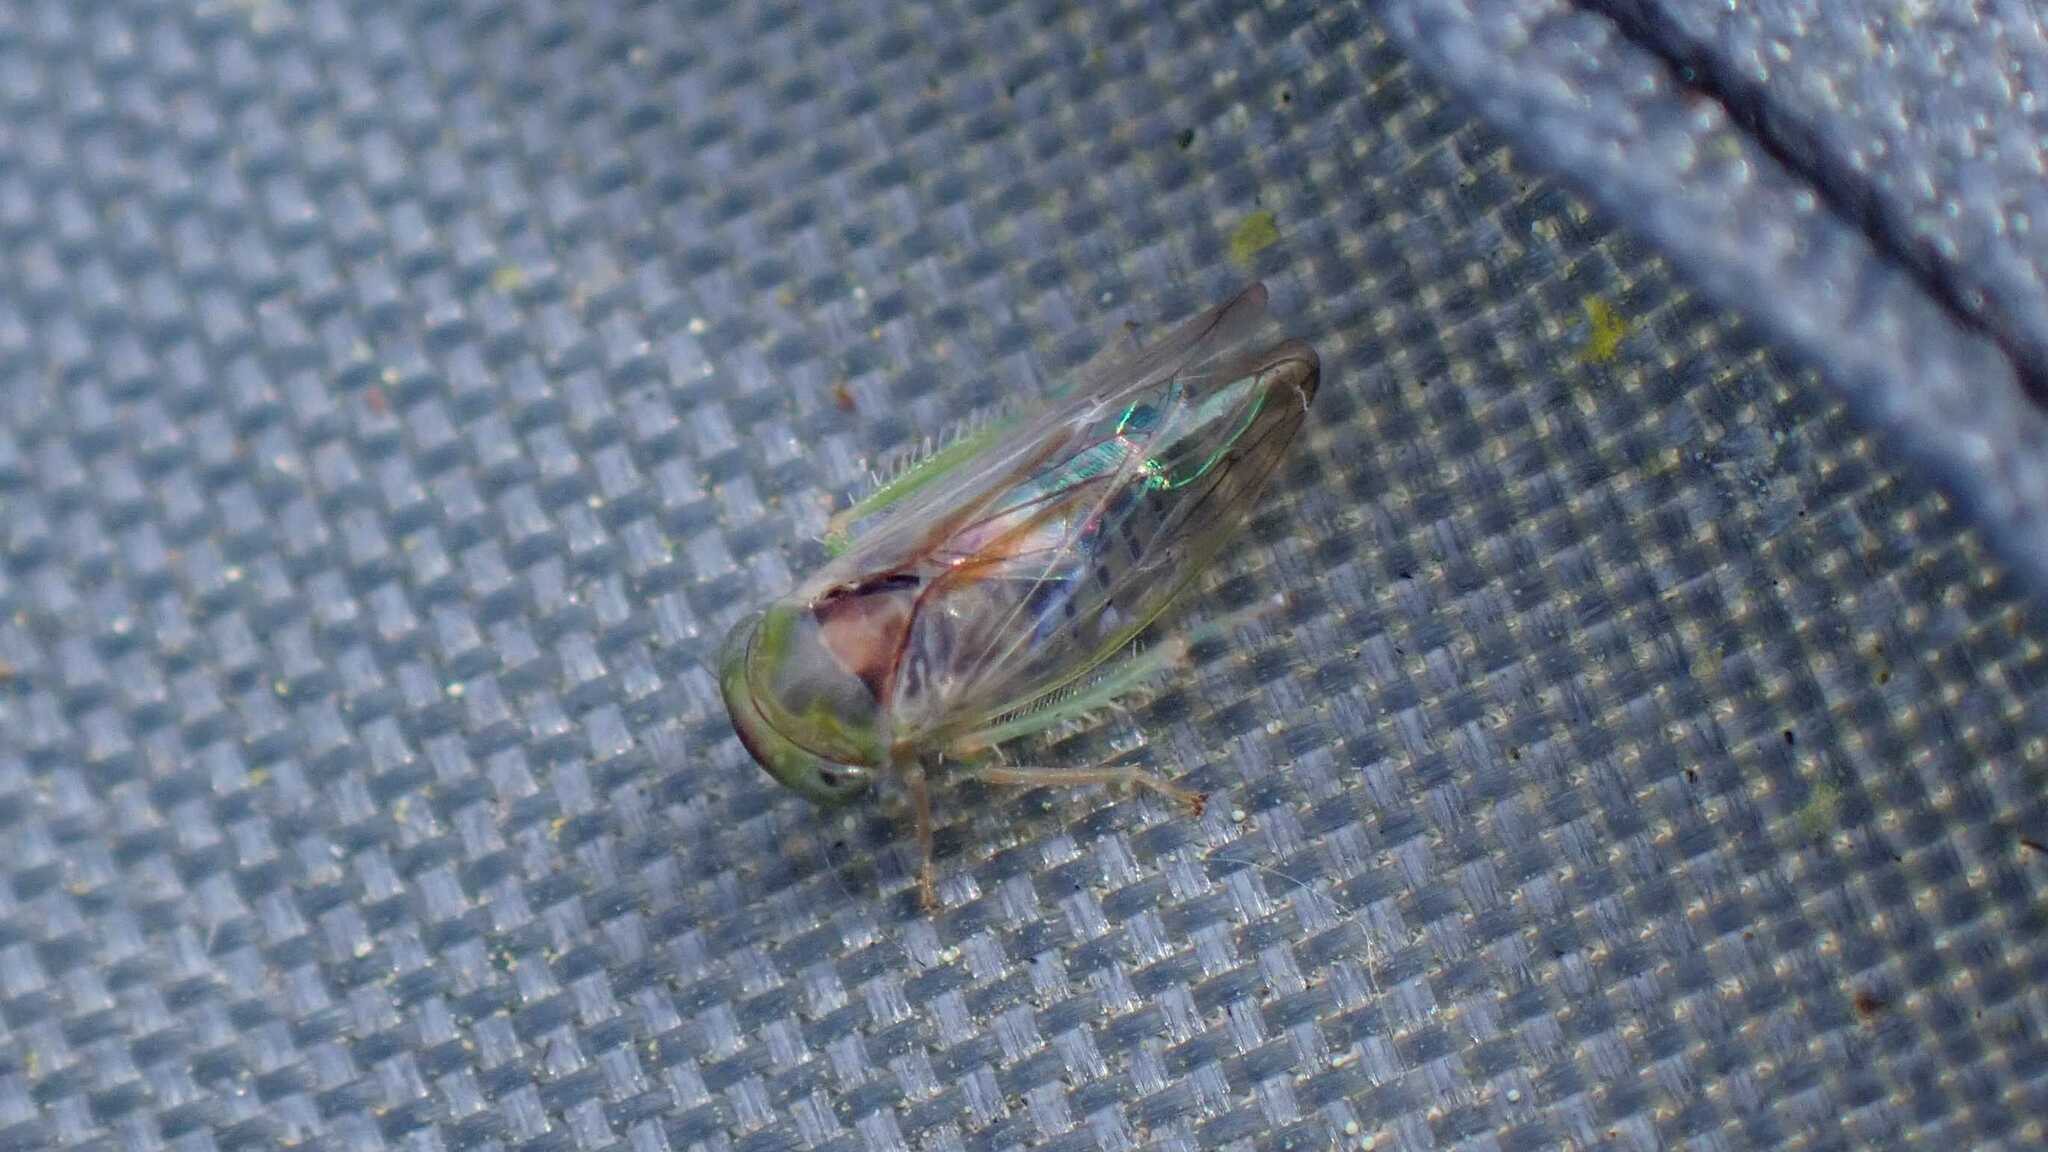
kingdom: Animalia
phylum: Arthropoda
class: Insecta
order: Hemiptera
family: Cicadellidae
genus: Viridicerus
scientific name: Viridicerus ustulatus
